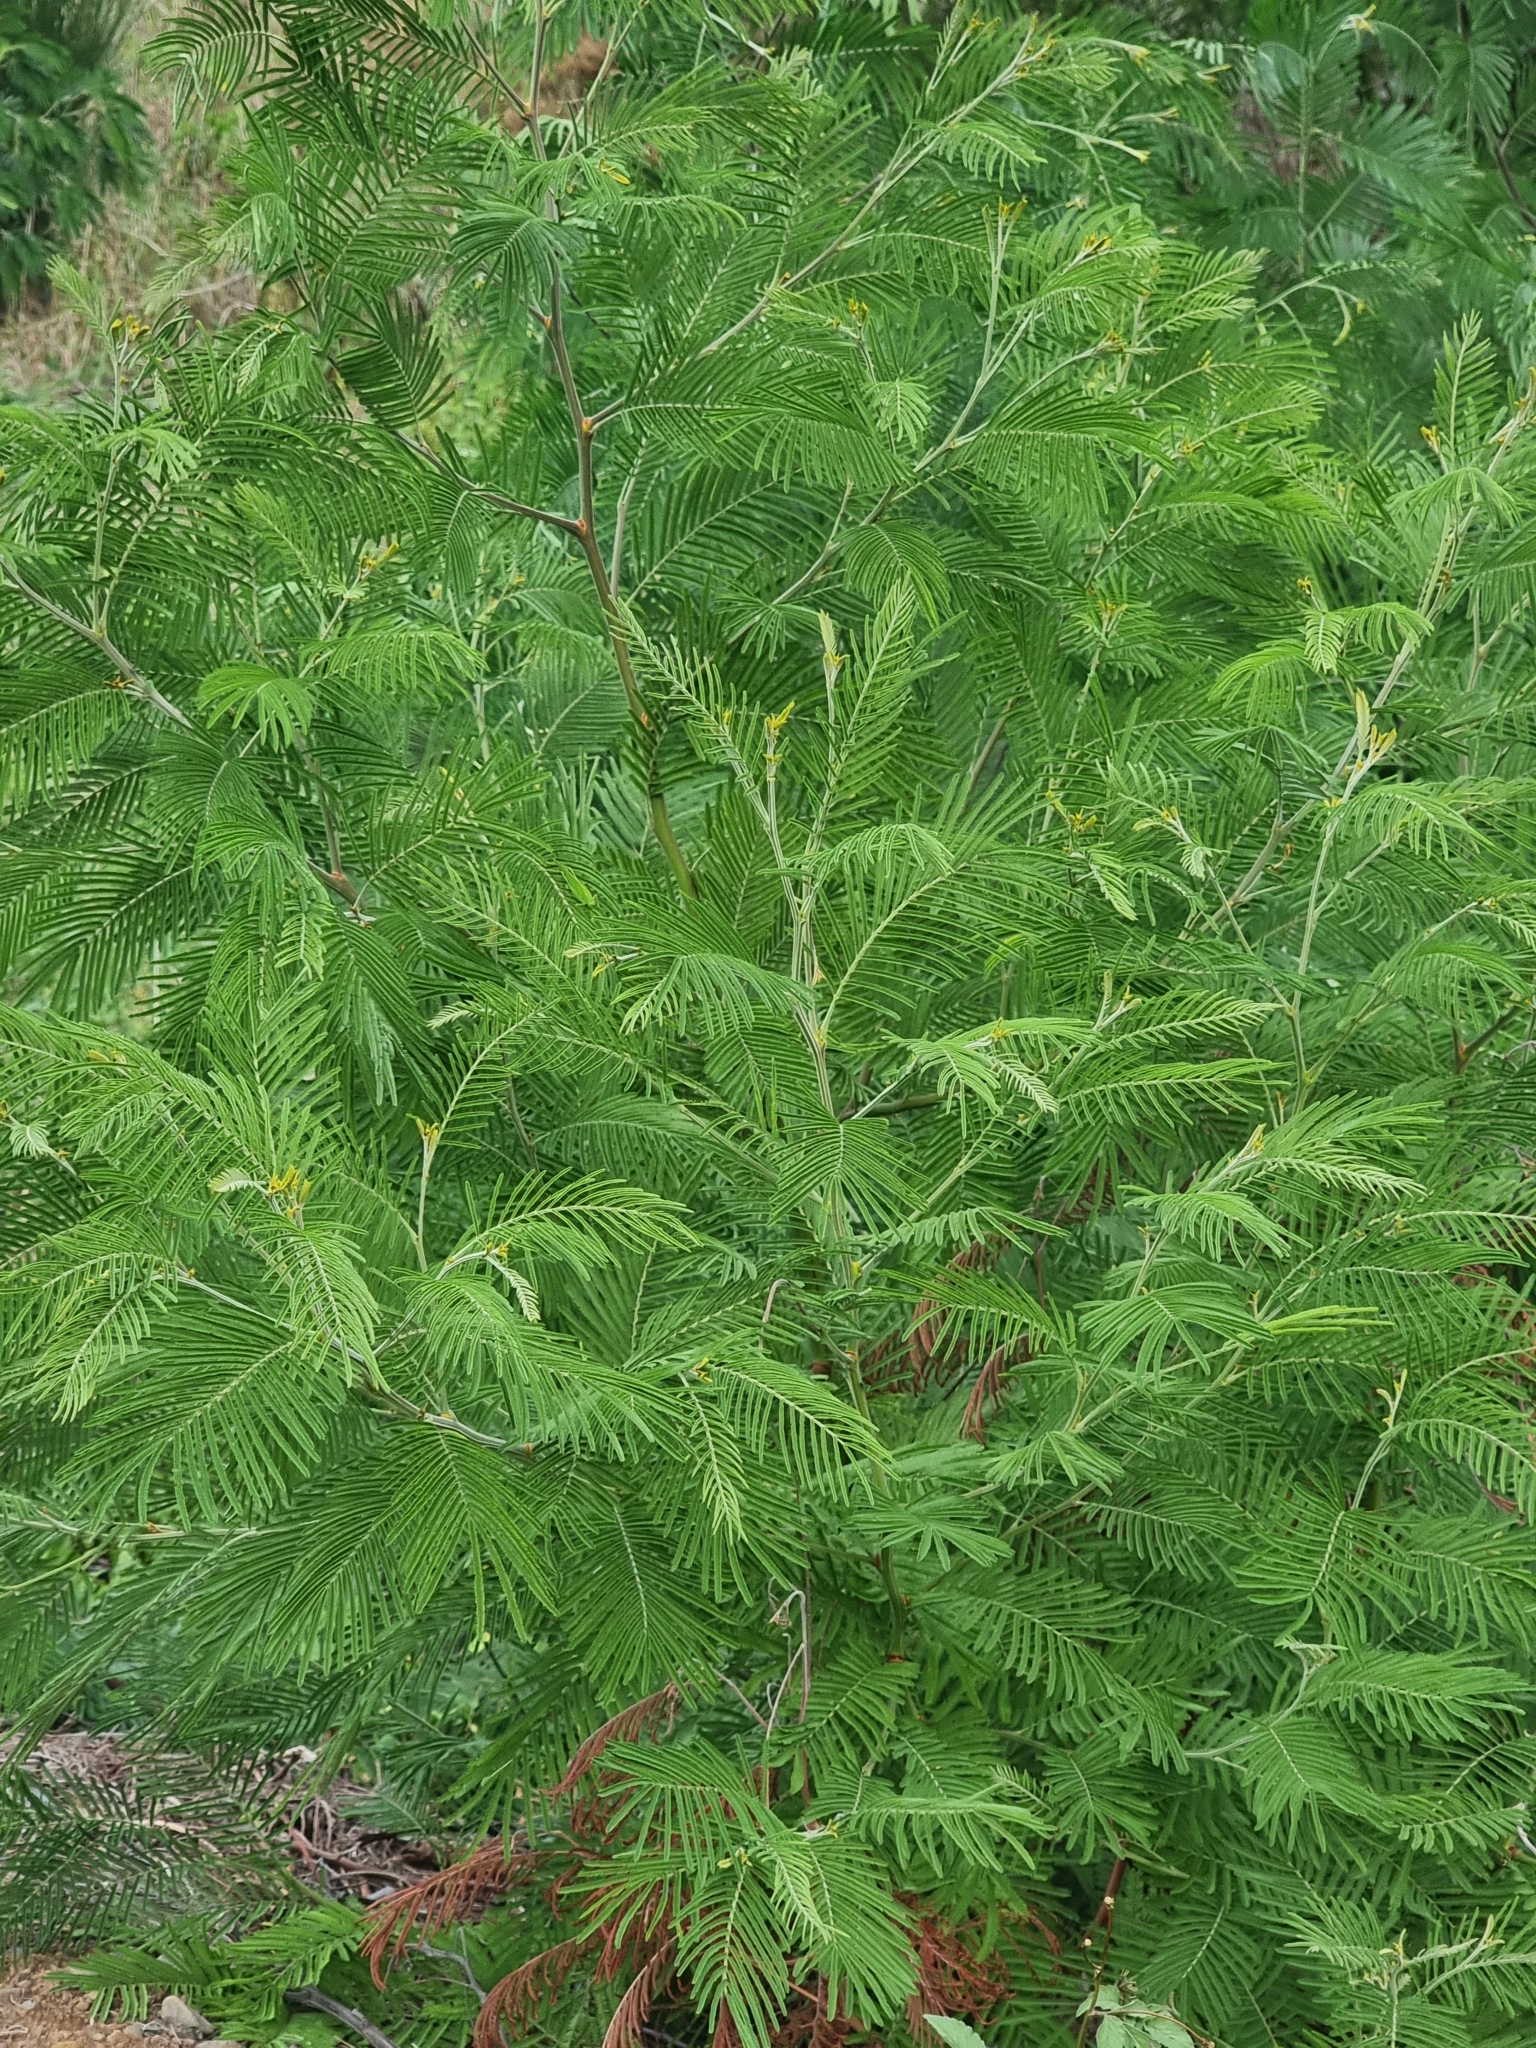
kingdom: Plantae
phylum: Tracheophyta
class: Magnoliopsida
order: Fabales
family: Fabaceae
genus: Acacia
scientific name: Acacia mearnsii
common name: Black wattle
